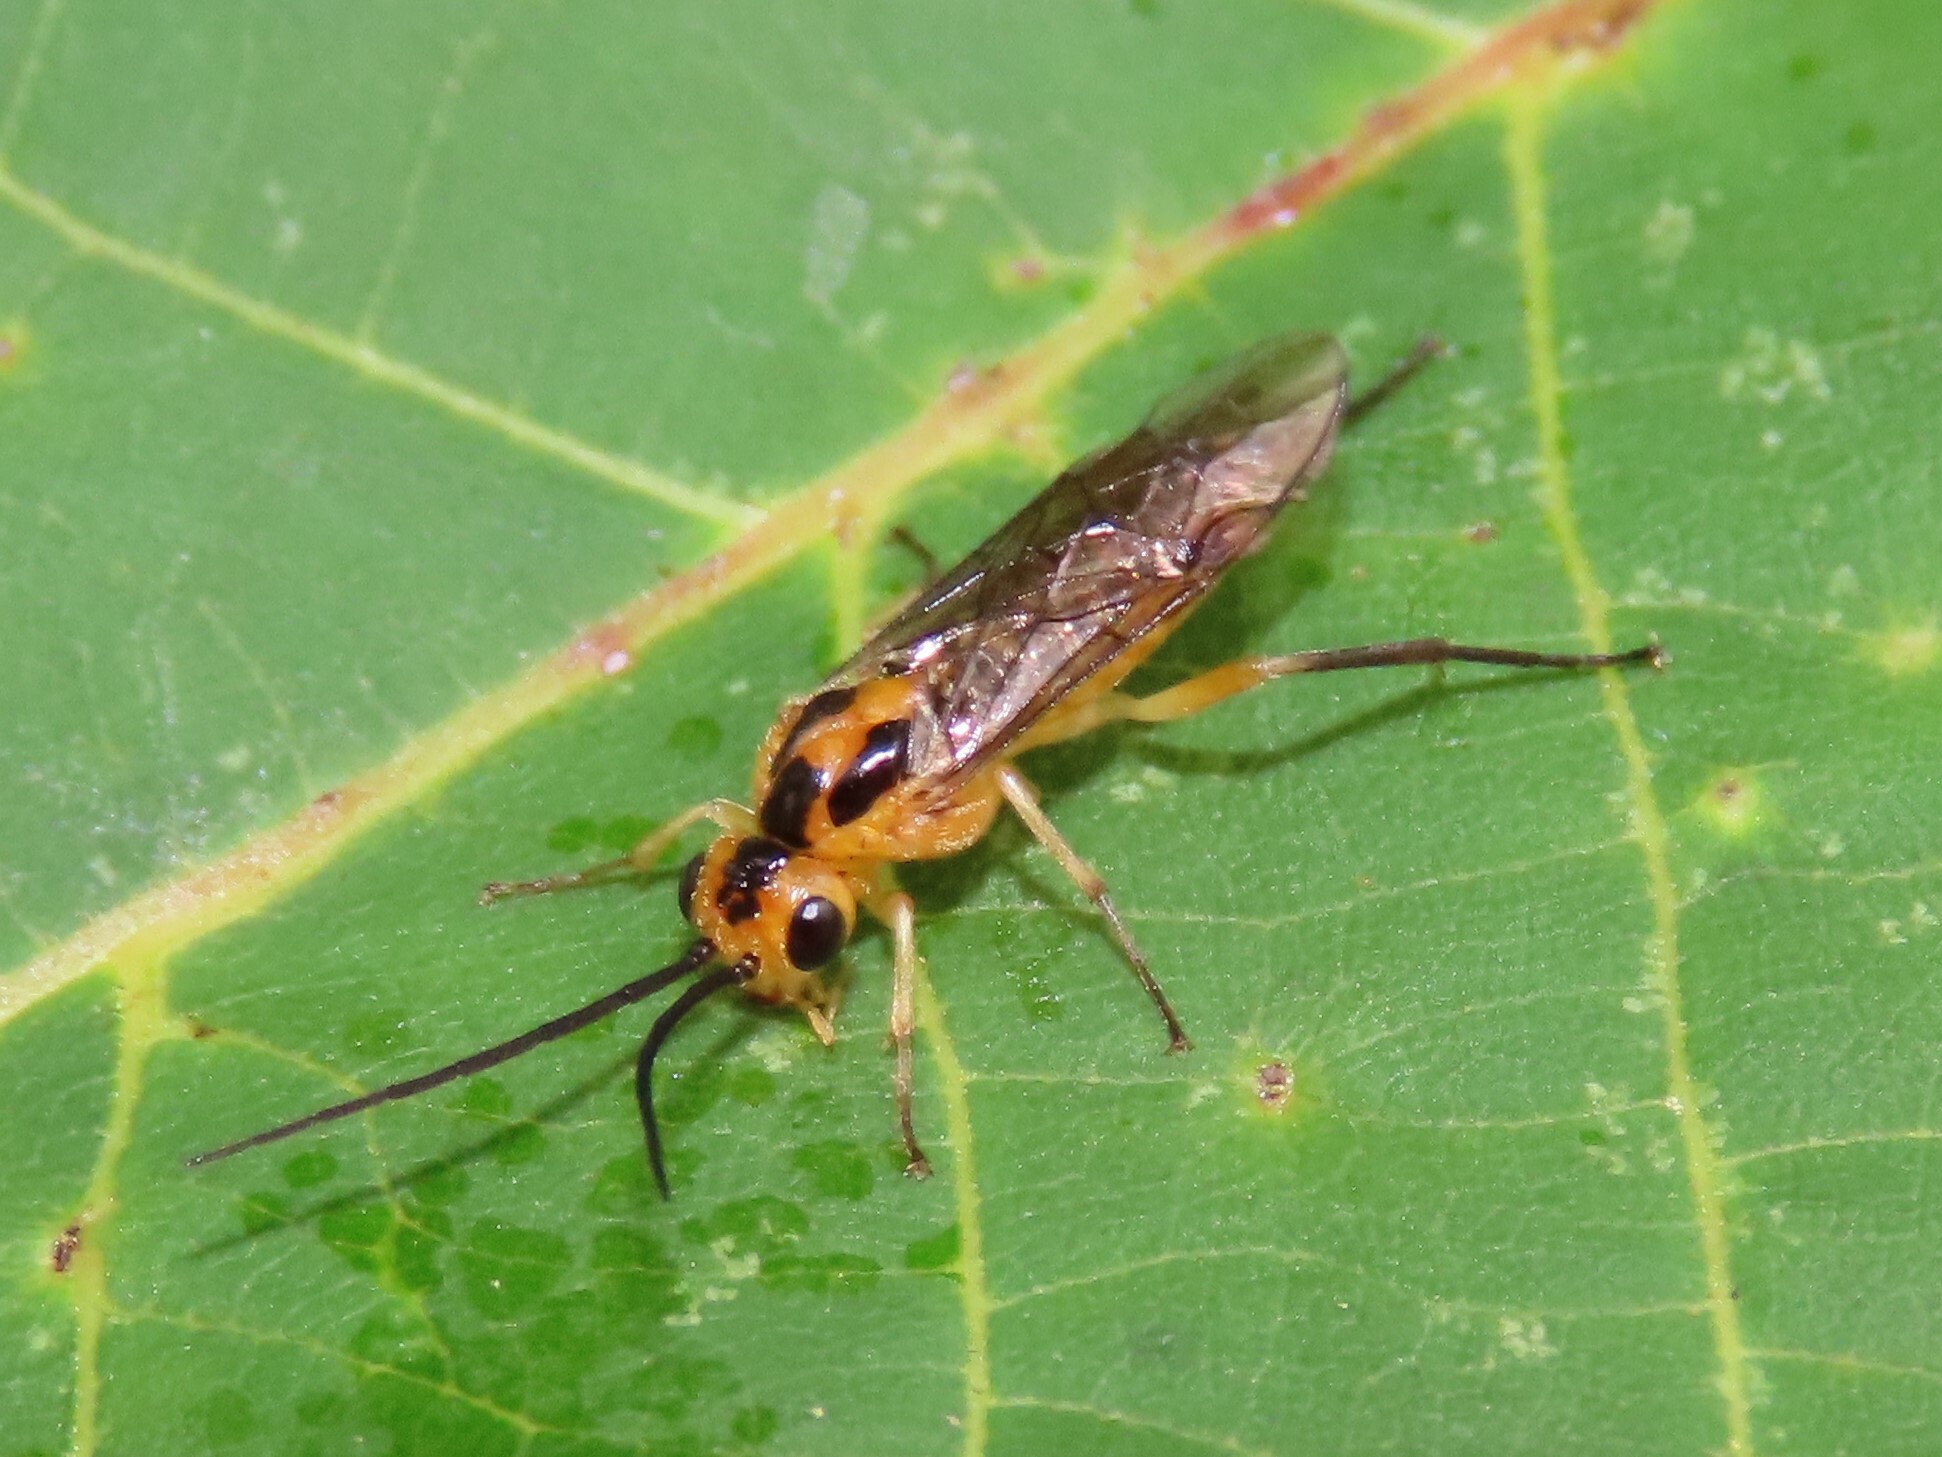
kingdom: Animalia
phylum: Arthropoda
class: Insecta
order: Hymenoptera
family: Tenthredinidae
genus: Euura
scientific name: Euura tibialis
